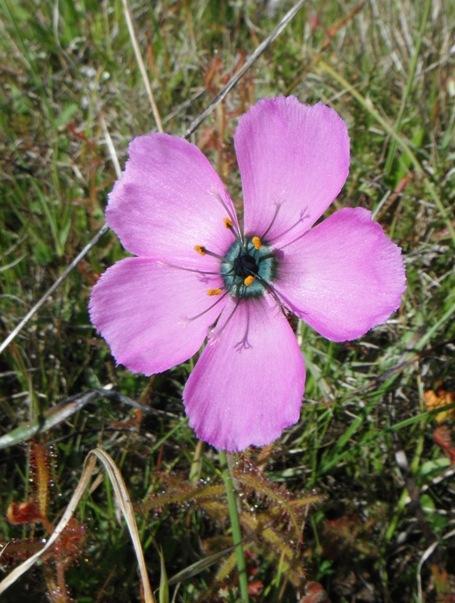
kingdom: Plantae
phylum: Tracheophyta
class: Magnoliopsida
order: Caryophyllales
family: Droseraceae
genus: Drosera
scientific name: Drosera cistiflora
